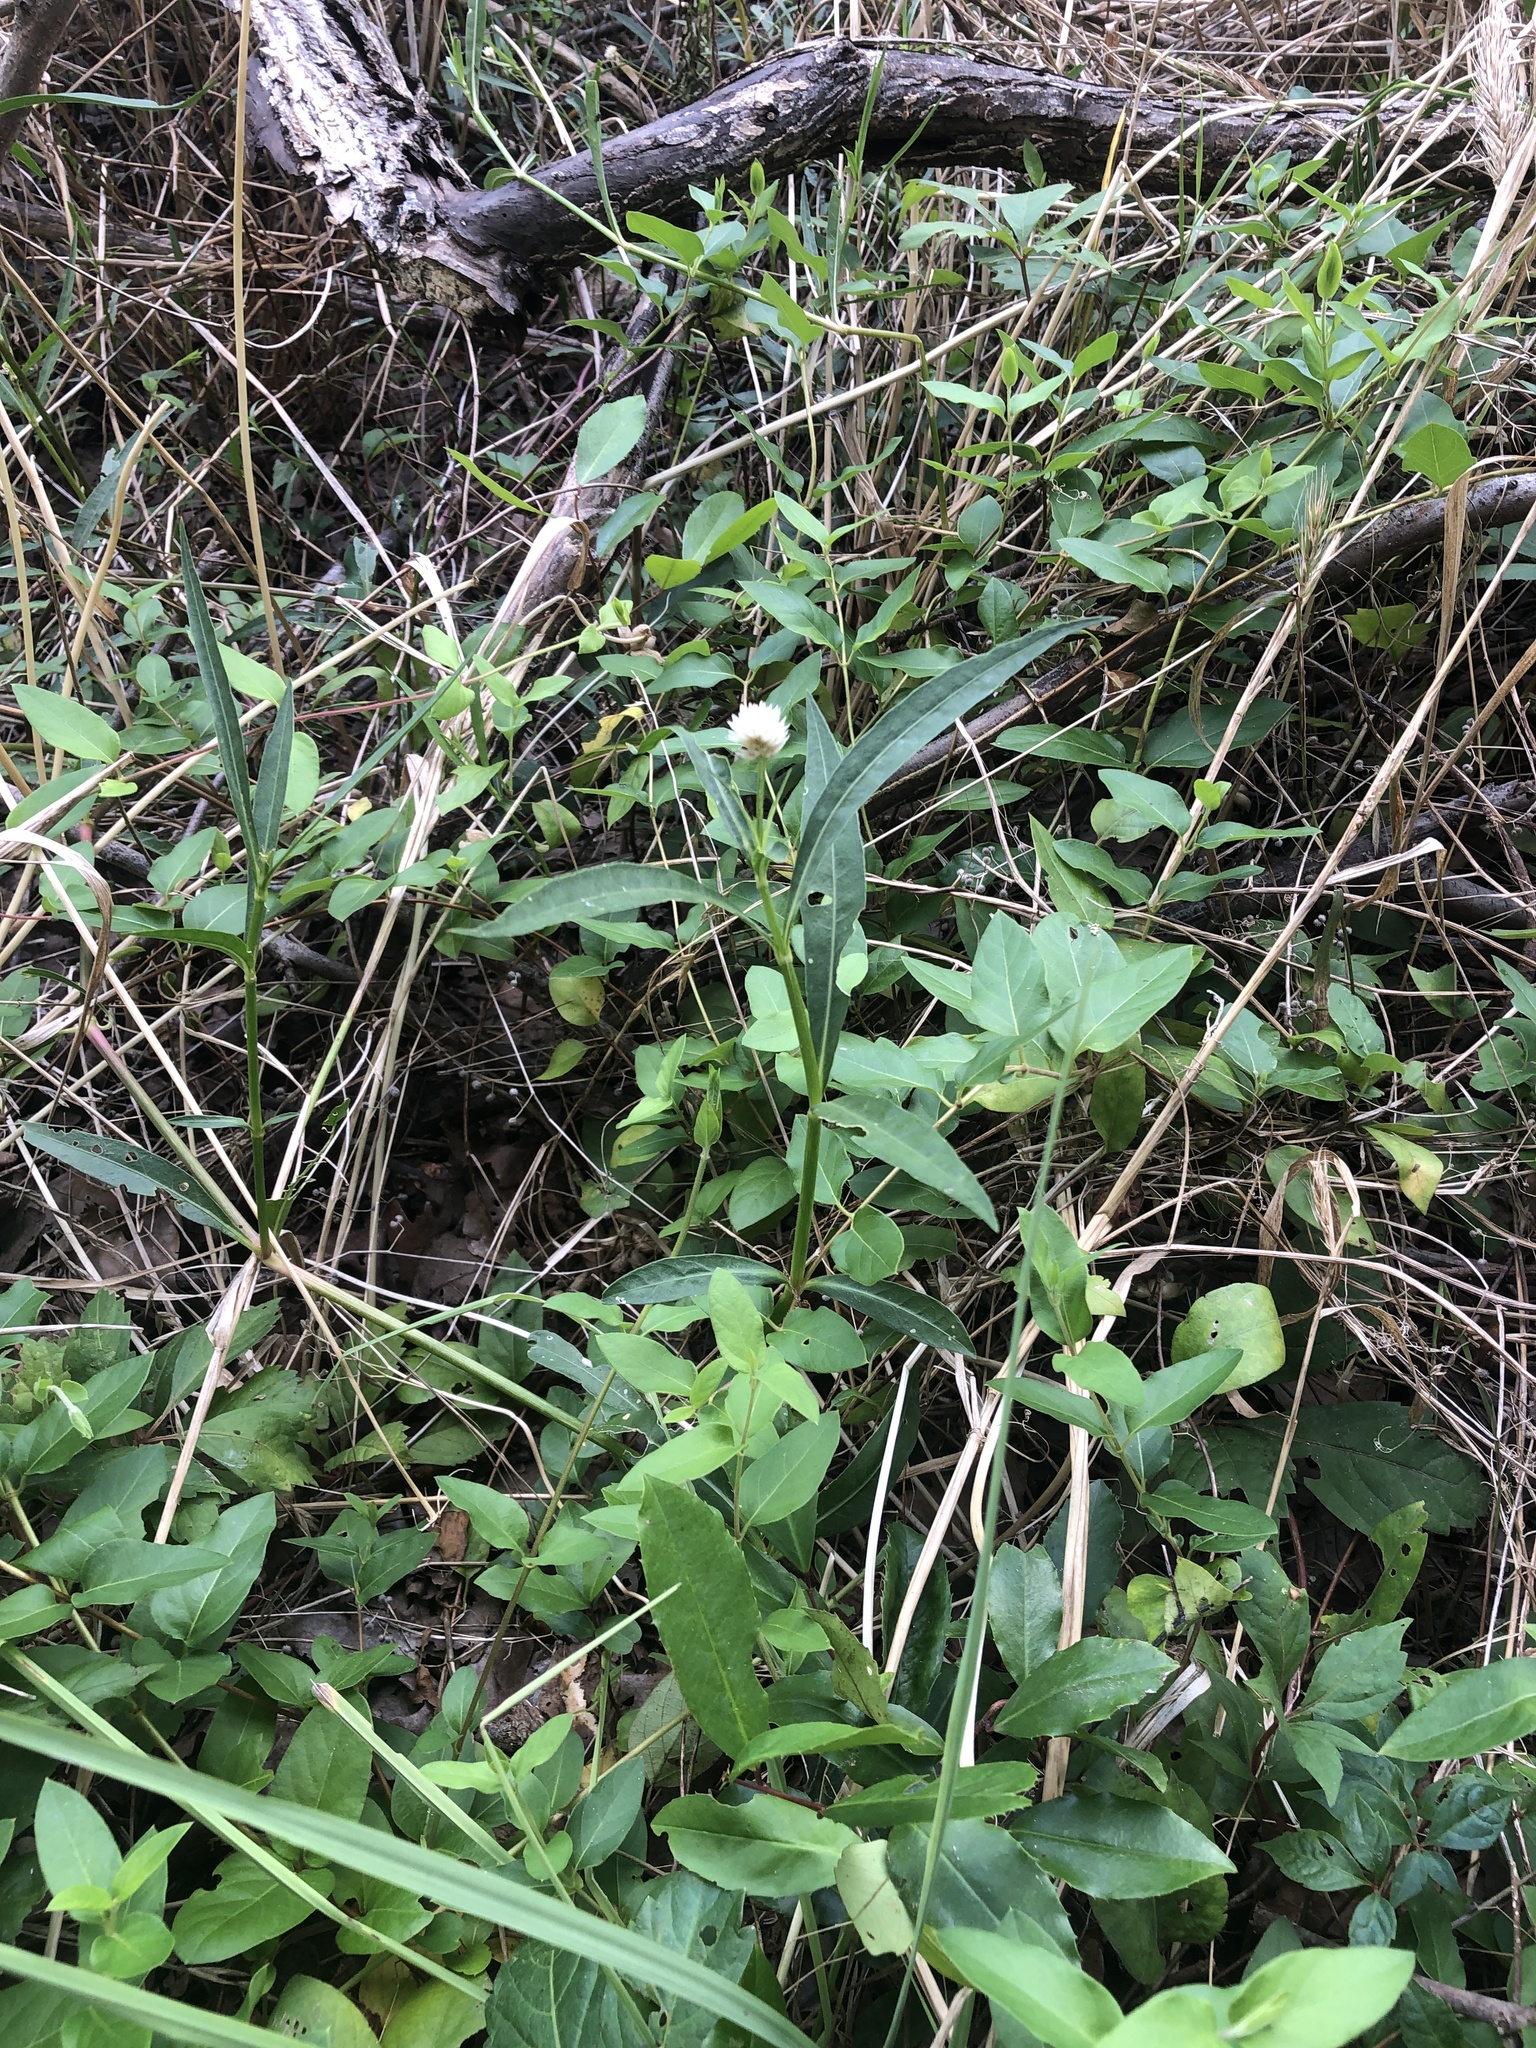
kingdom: Plantae
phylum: Tracheophyta
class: Magnoliopsida
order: Caryophyllales
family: Amaranthaceae
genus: Alternanthera
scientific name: Alternanthera philoxeroides
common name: Alligatorweed
